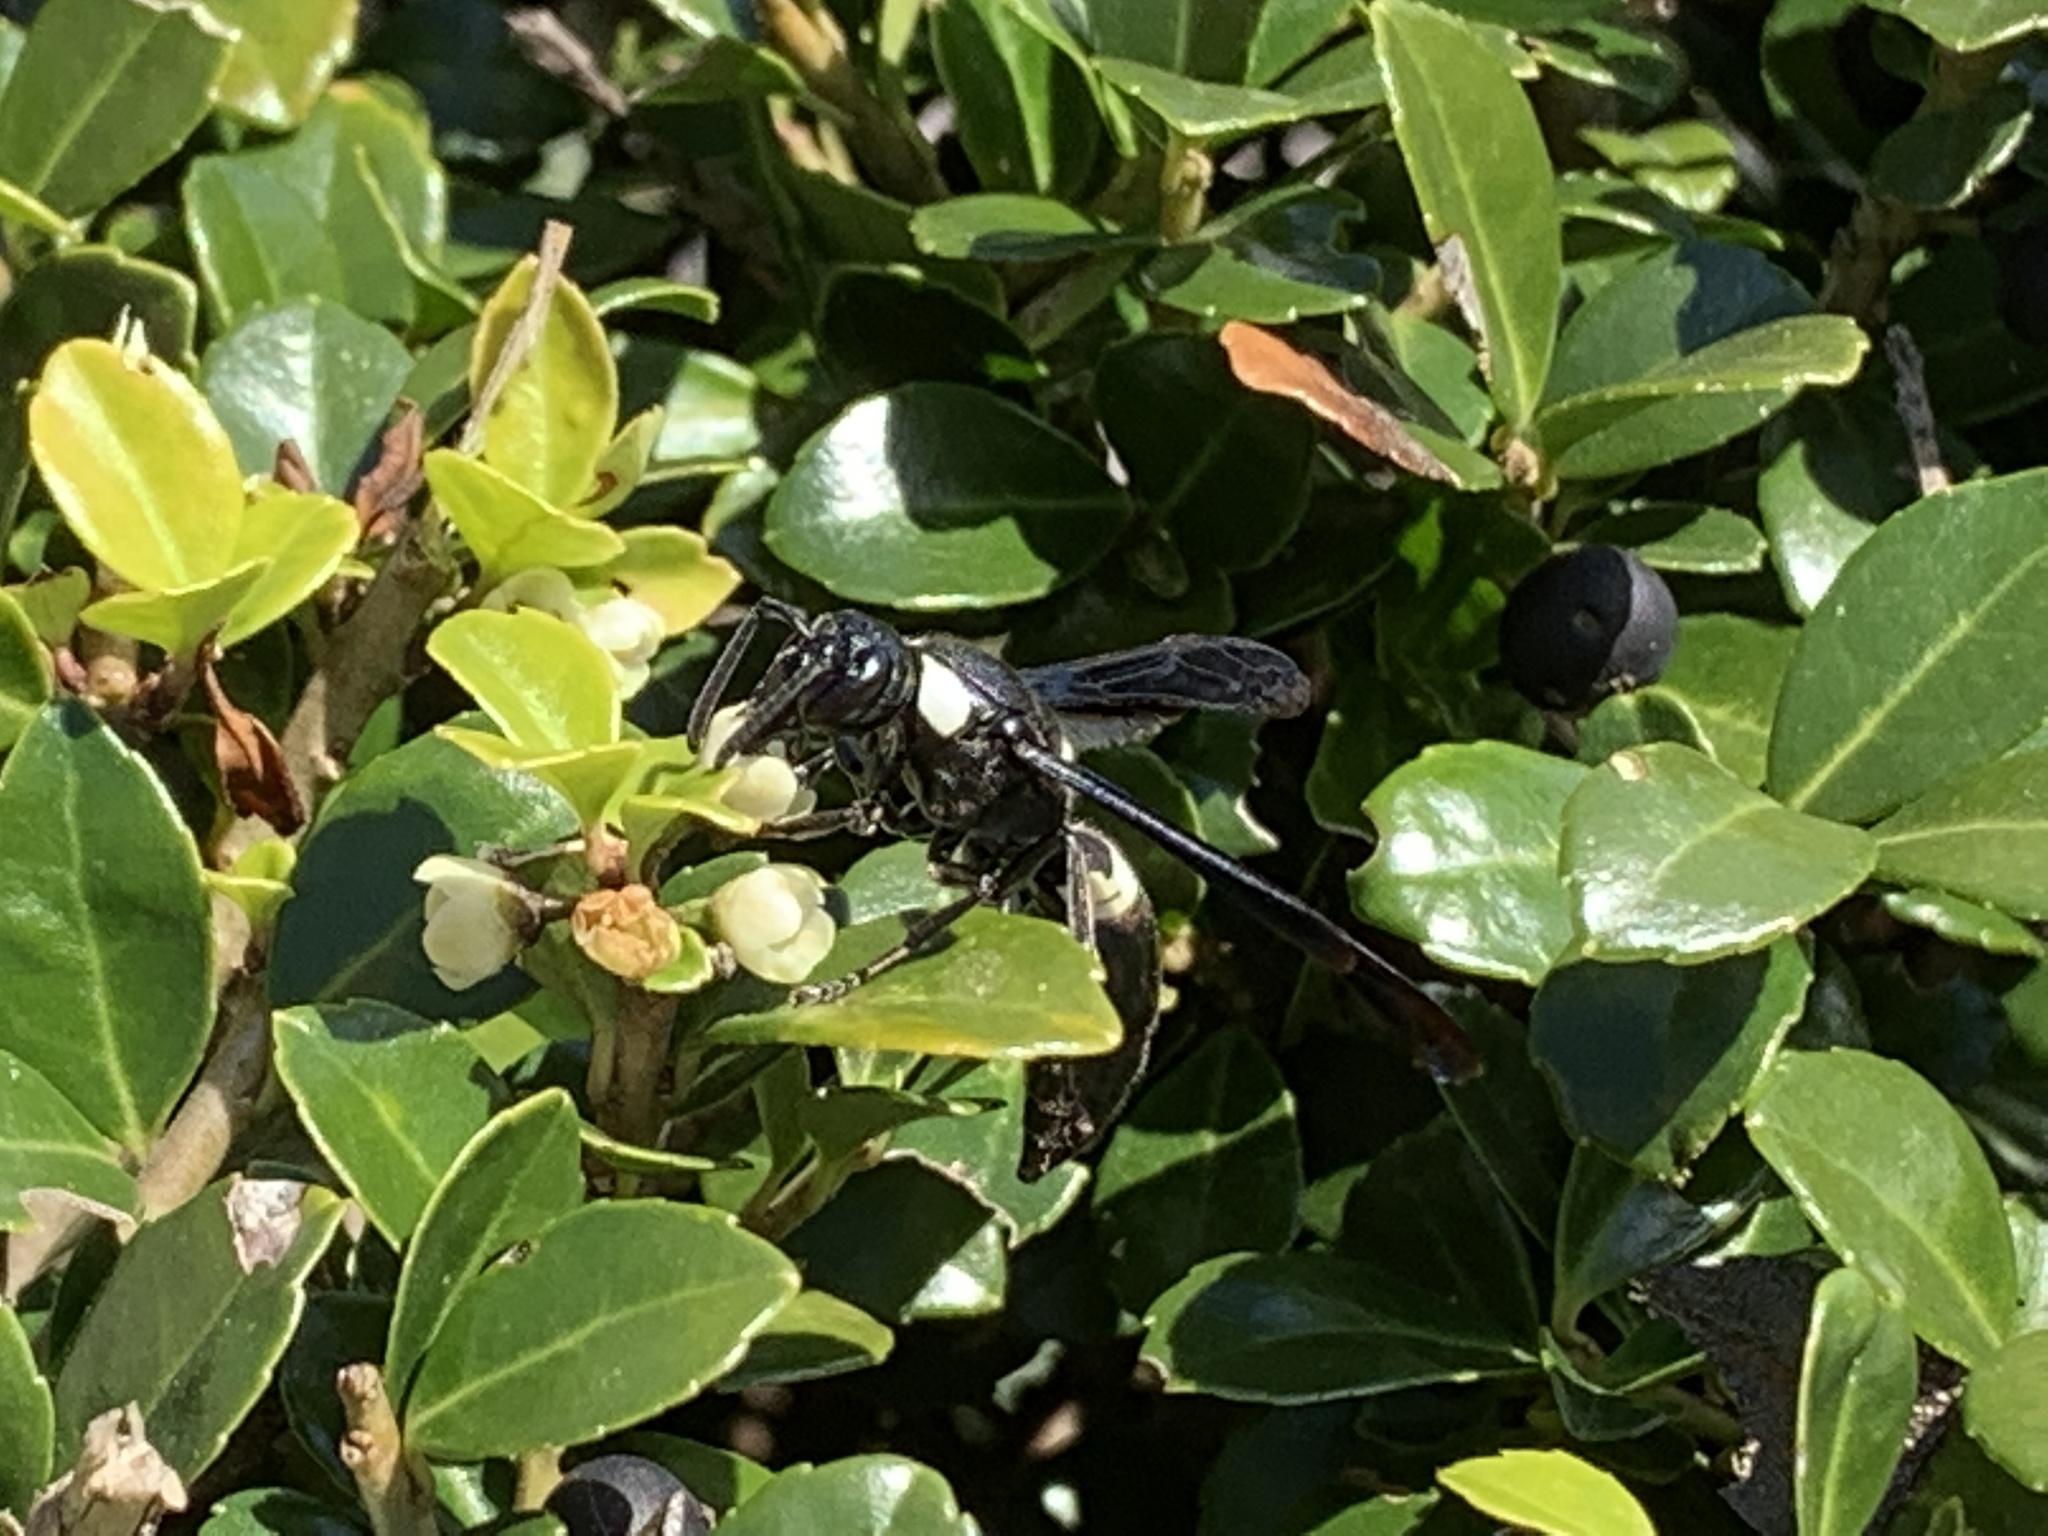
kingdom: Animalia
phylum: Arthropoda
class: Insecta
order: Hymenoptera
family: Eumenidae
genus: Monobia
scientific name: Monobia quadridens
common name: Four-toothed mason wasp
